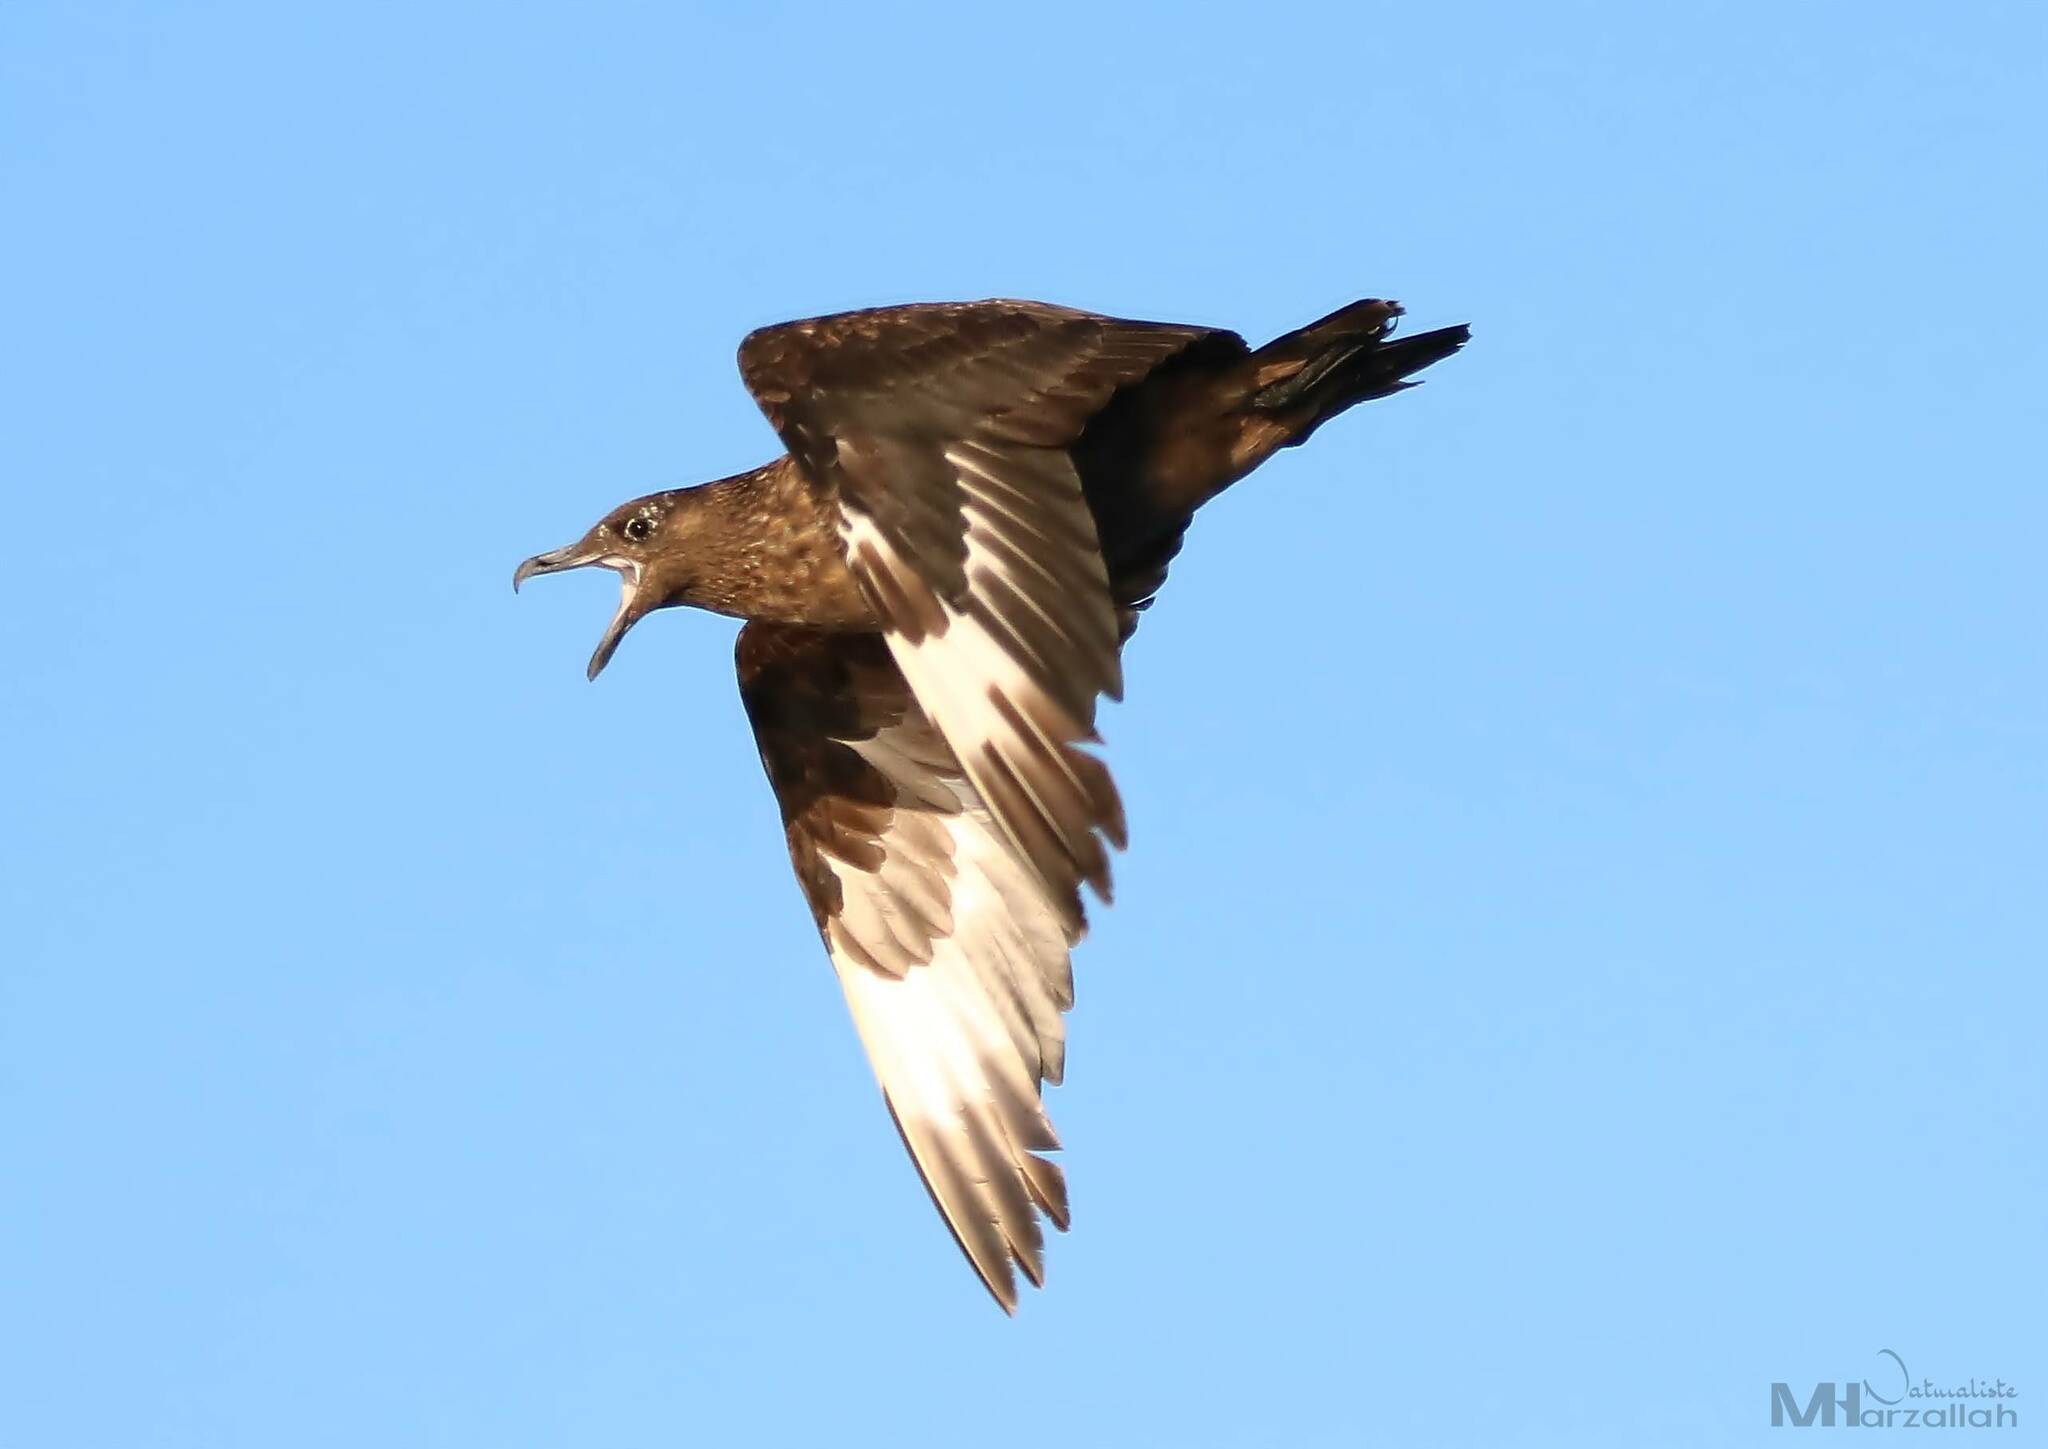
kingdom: Animalia
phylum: Chordata
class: Aves
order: Charadriiformes
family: Stercorariidae
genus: Stercorarius
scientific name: Stercorarius skua
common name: Great skua
